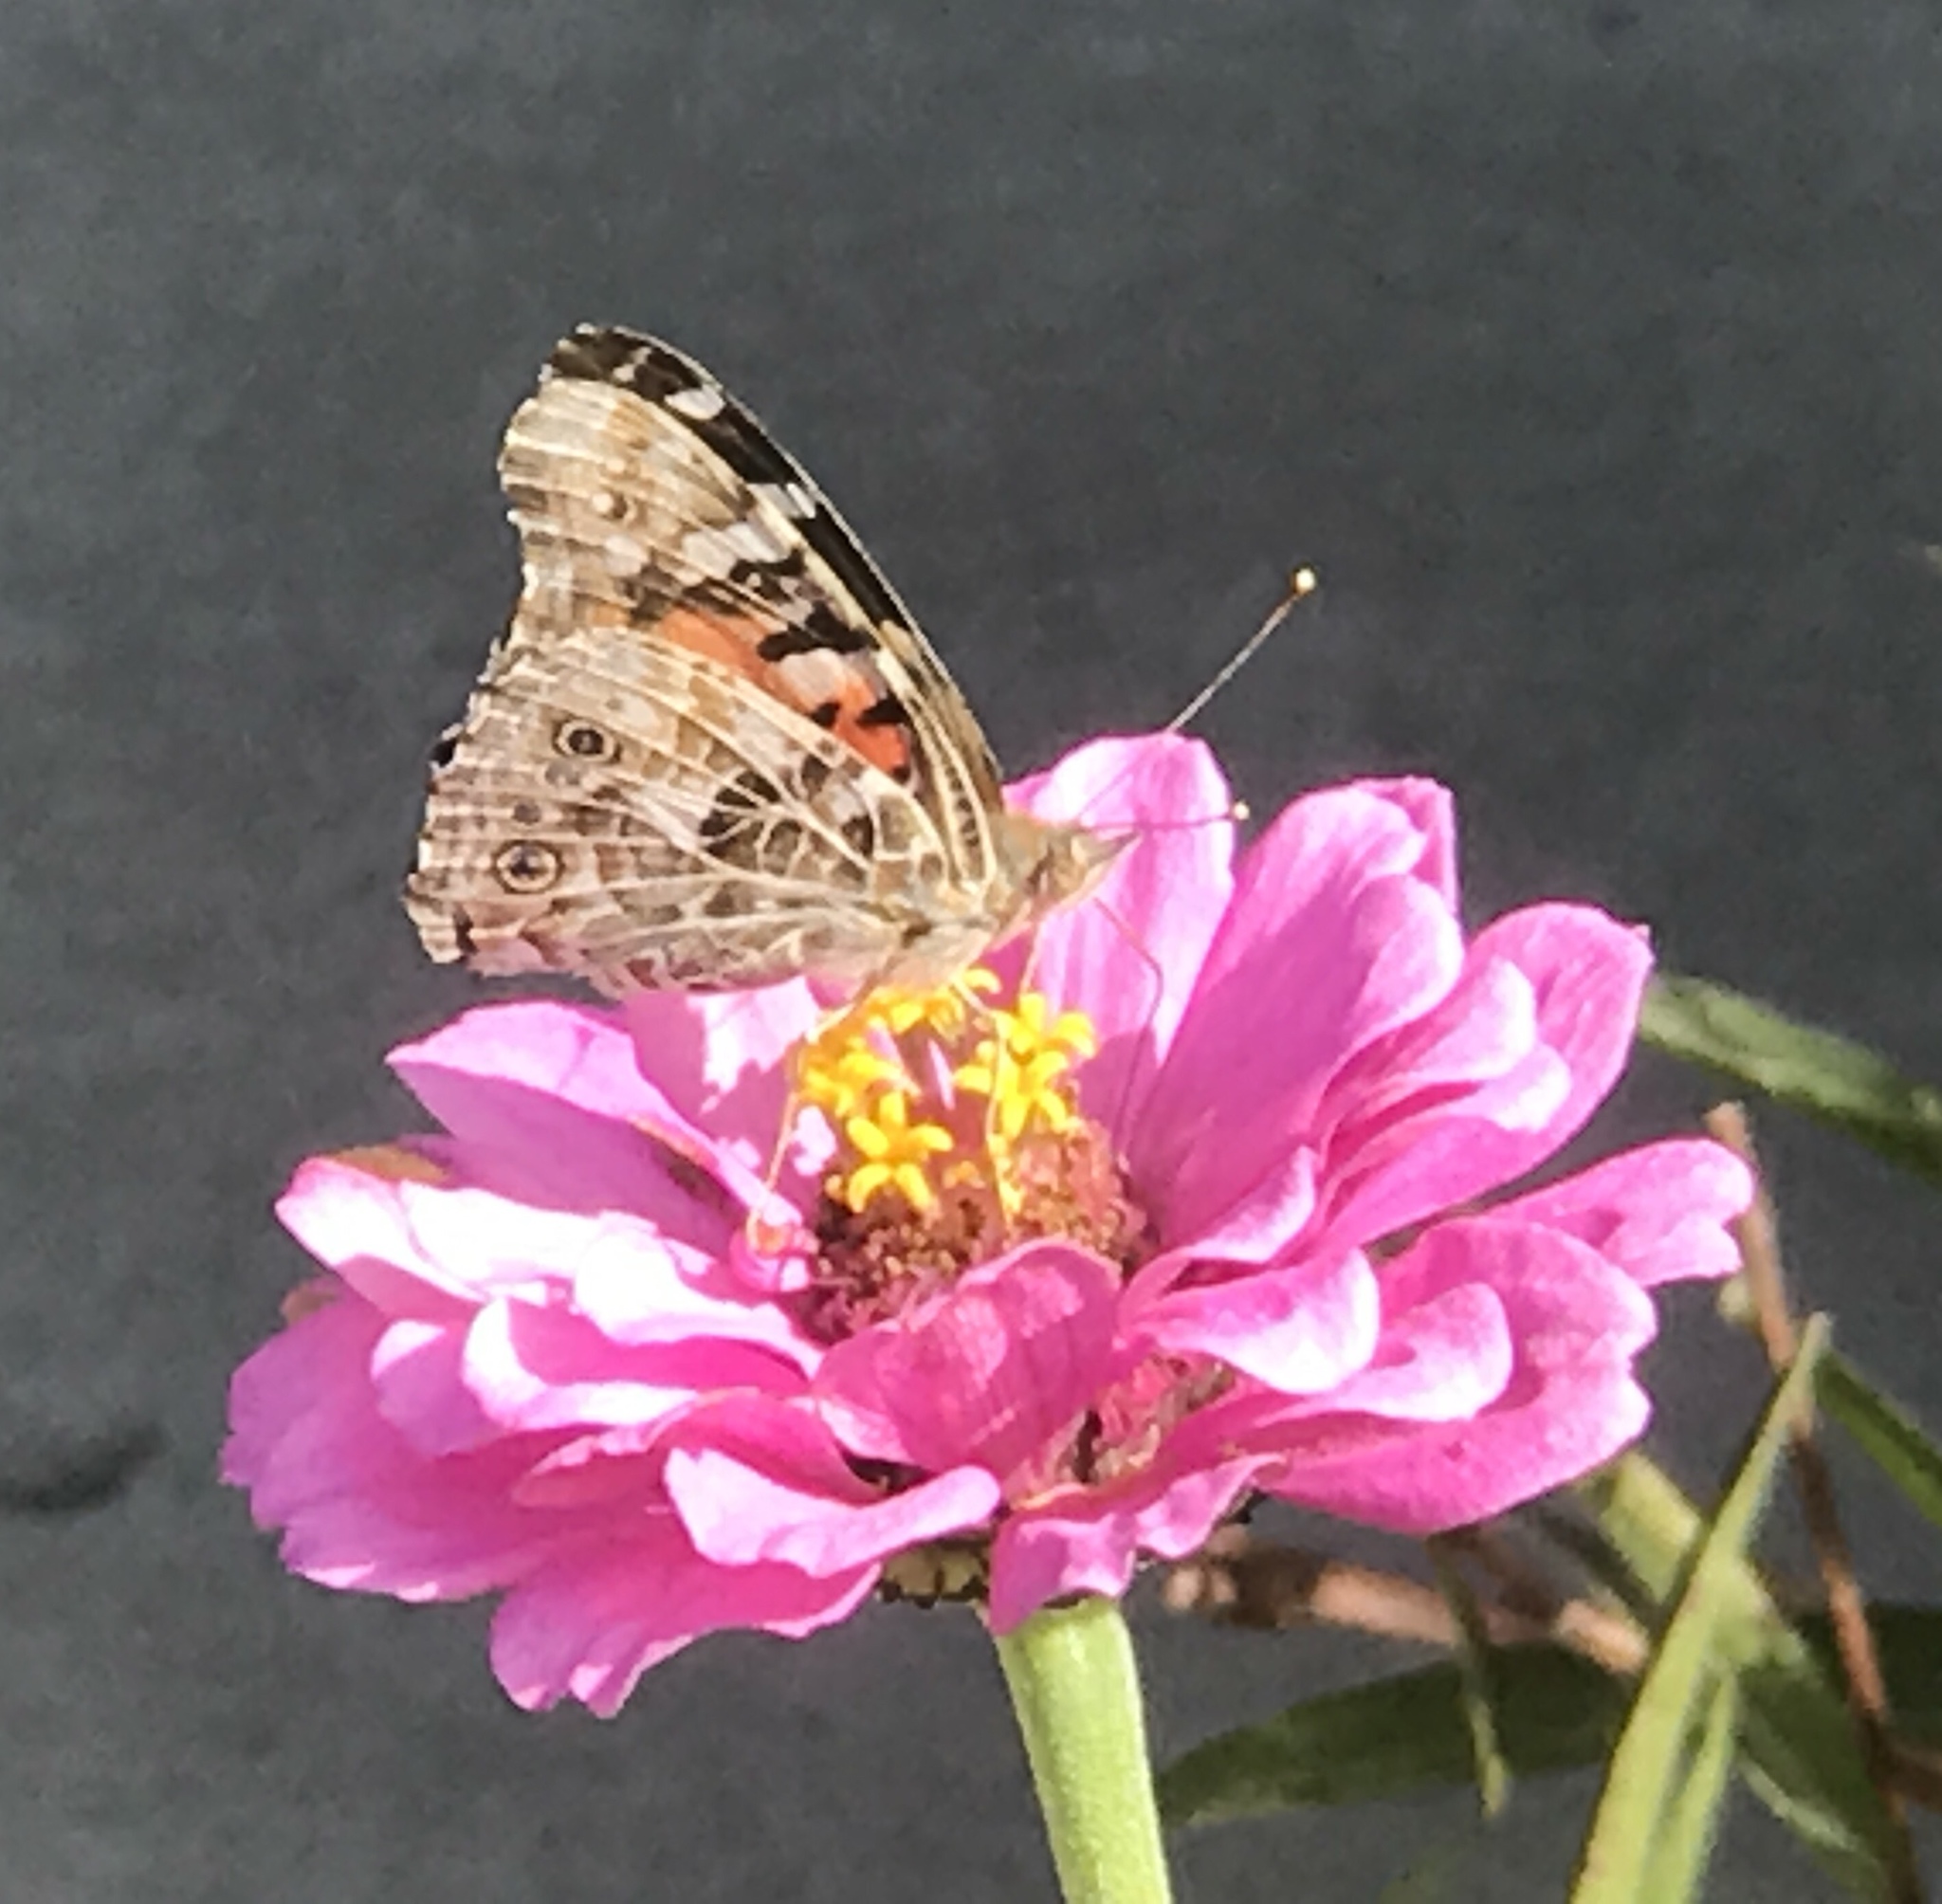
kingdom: Animalia
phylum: Arthropoda
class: Insecta
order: Lepidoptera
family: Nymphalidae
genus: Vanessa
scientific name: Vanessa cardui
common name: Painted lady
